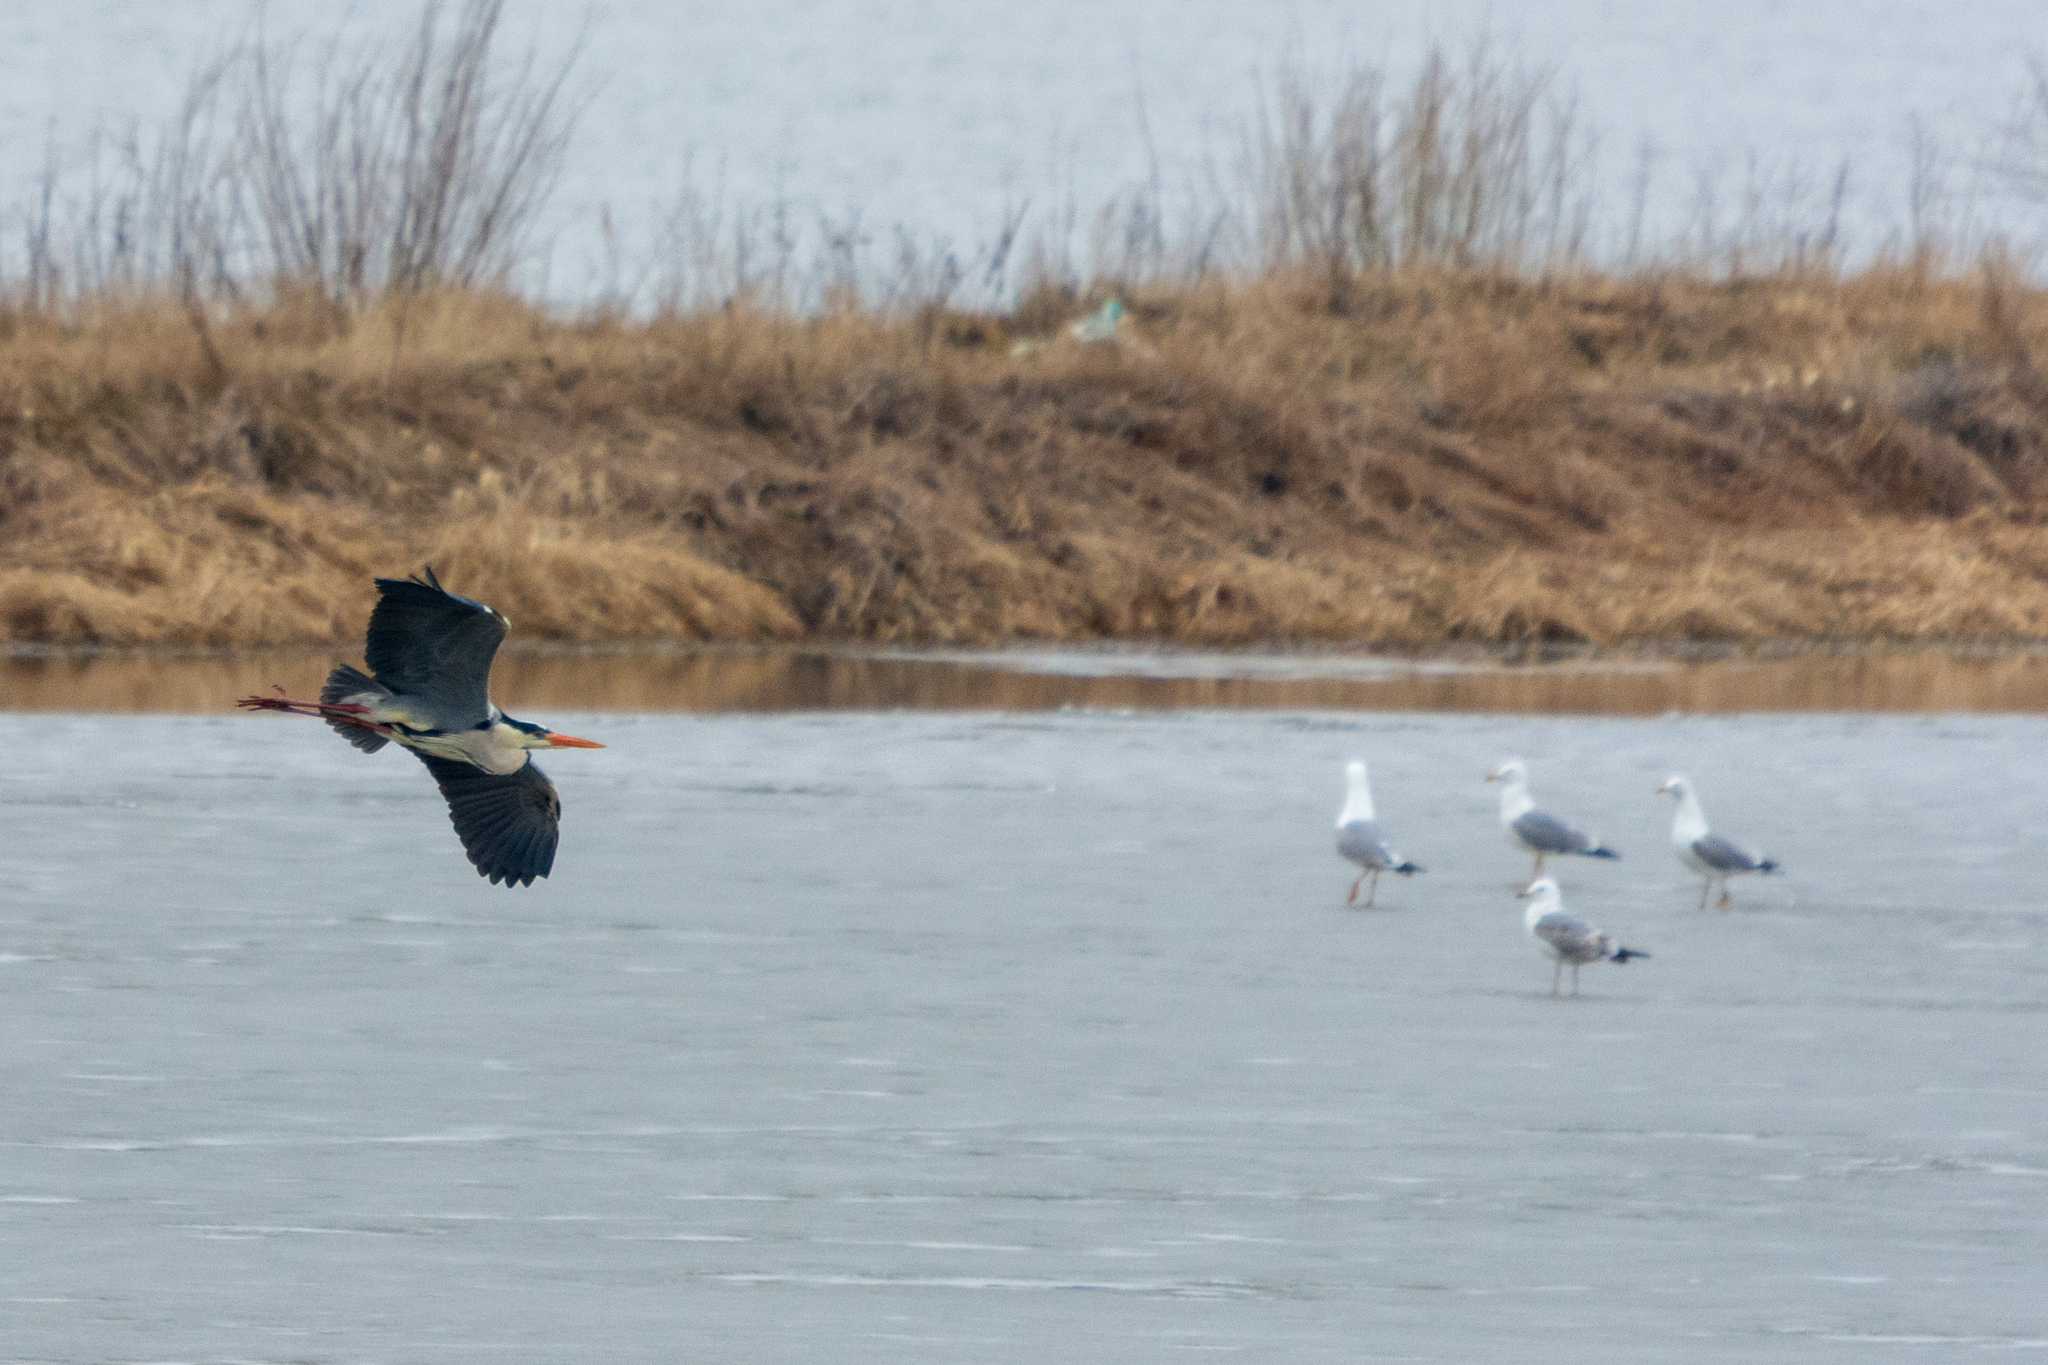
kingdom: Animalia
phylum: Chordata
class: Aves
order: Pelecaniformes
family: Ardeidae
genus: Ardea
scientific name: Ardea cinerea
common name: Grey heron
